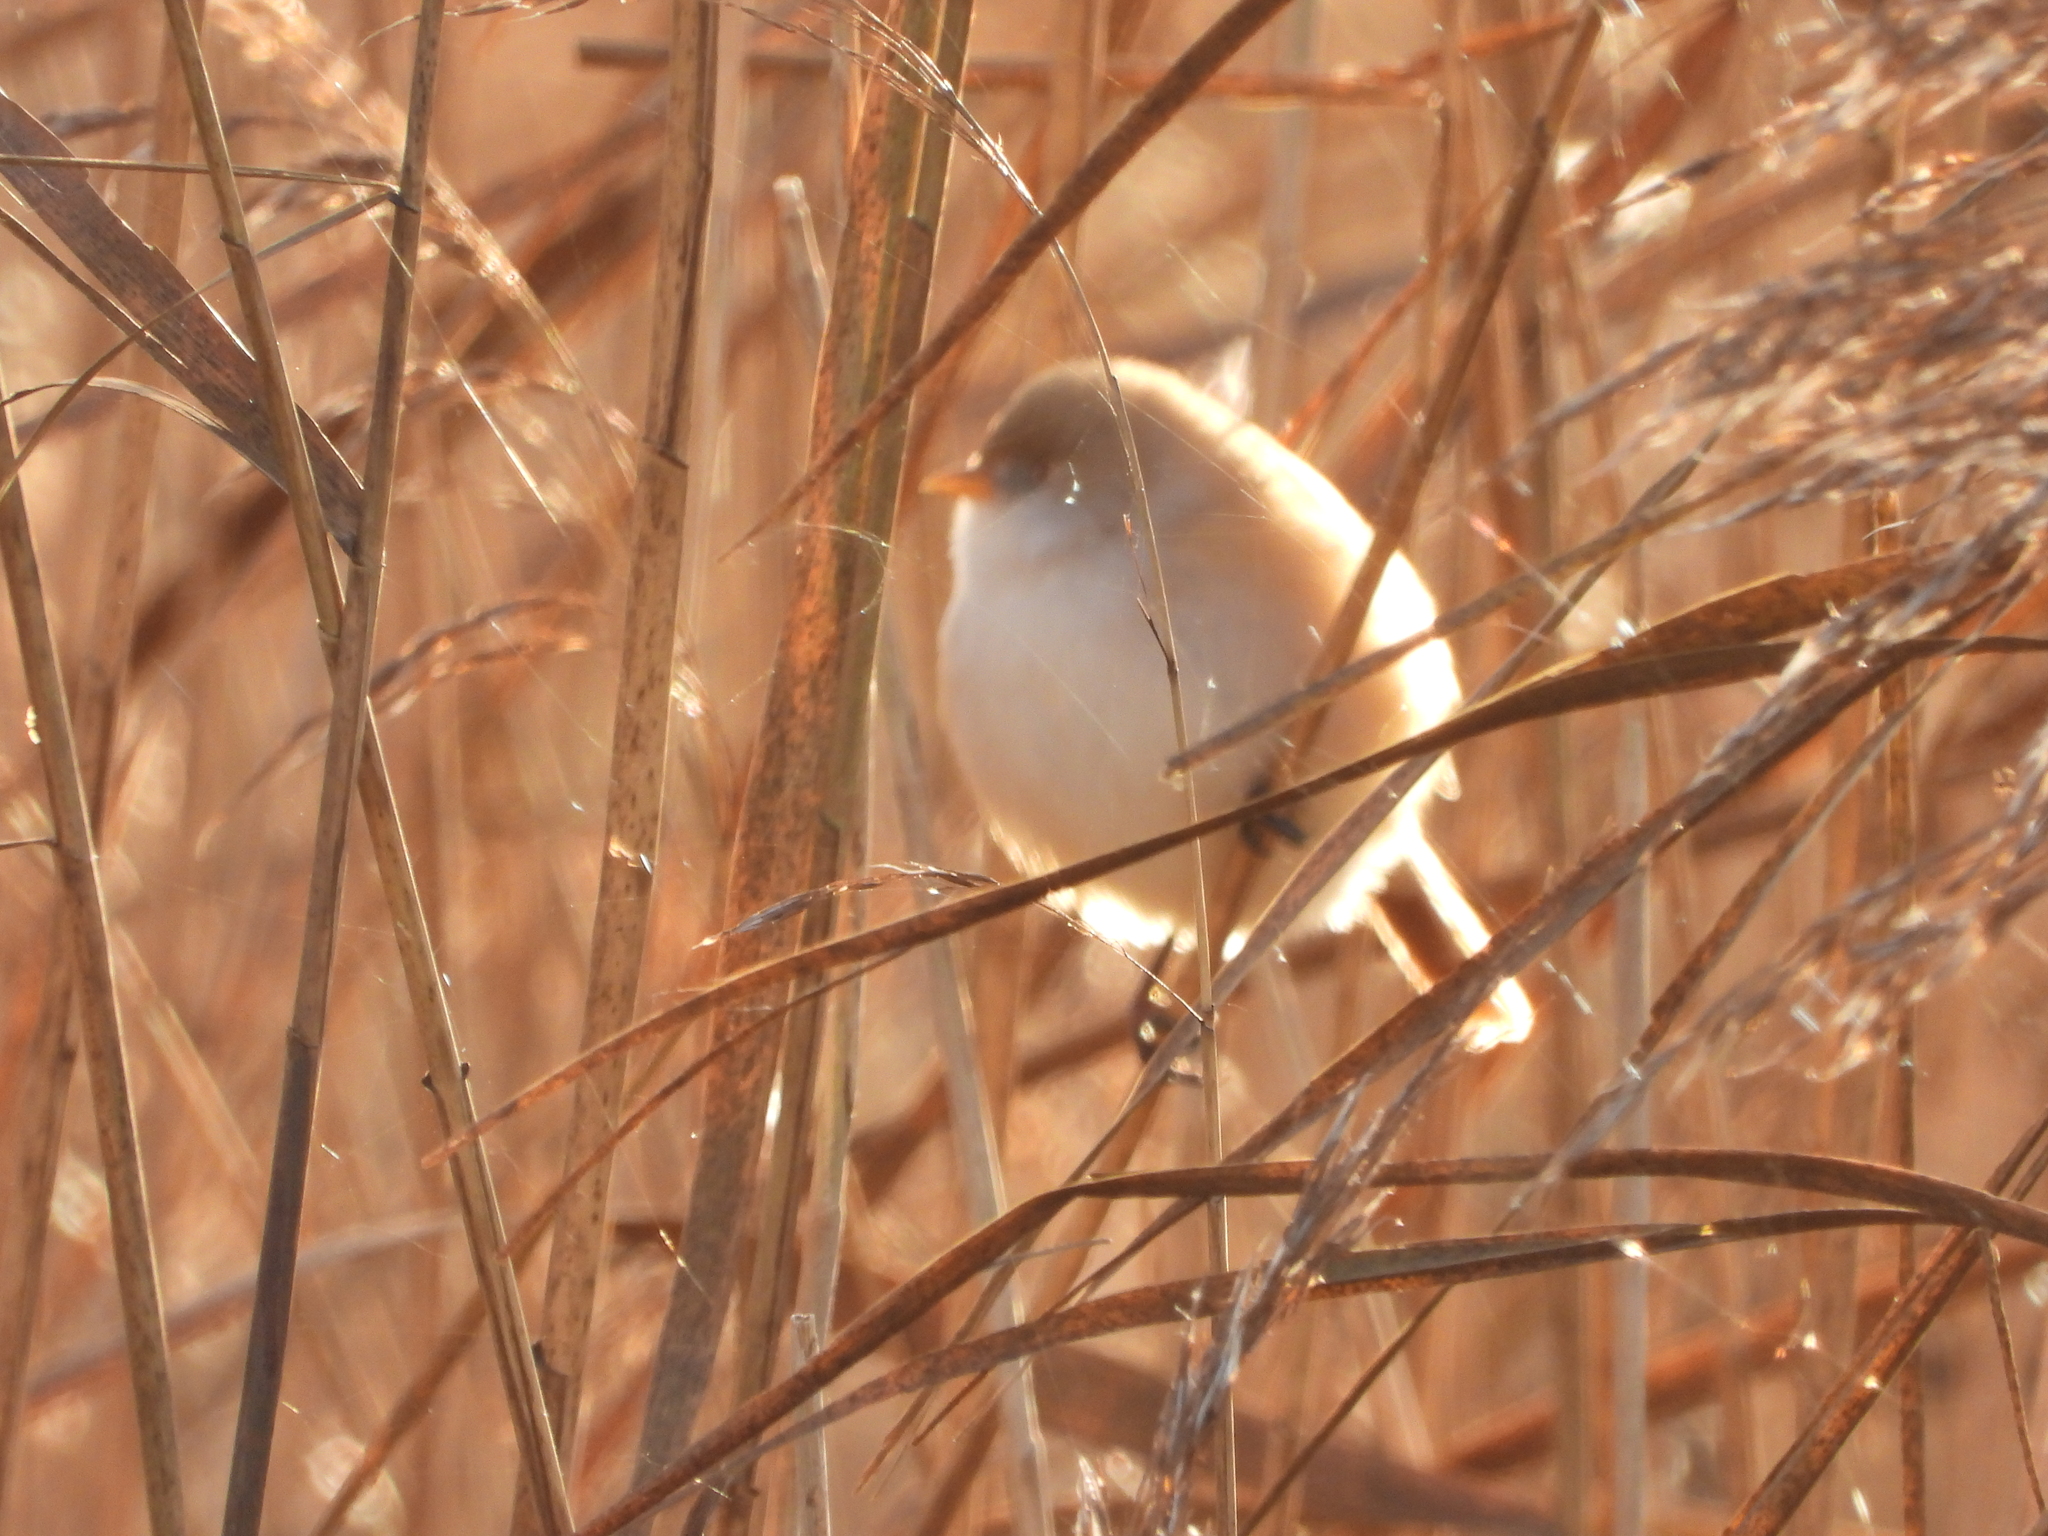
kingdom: Animalia
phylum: Chordata
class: Aves
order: Passeriformes
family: Panuridae
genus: Panurus
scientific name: Panurus biarmicus
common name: Bearded reedling
